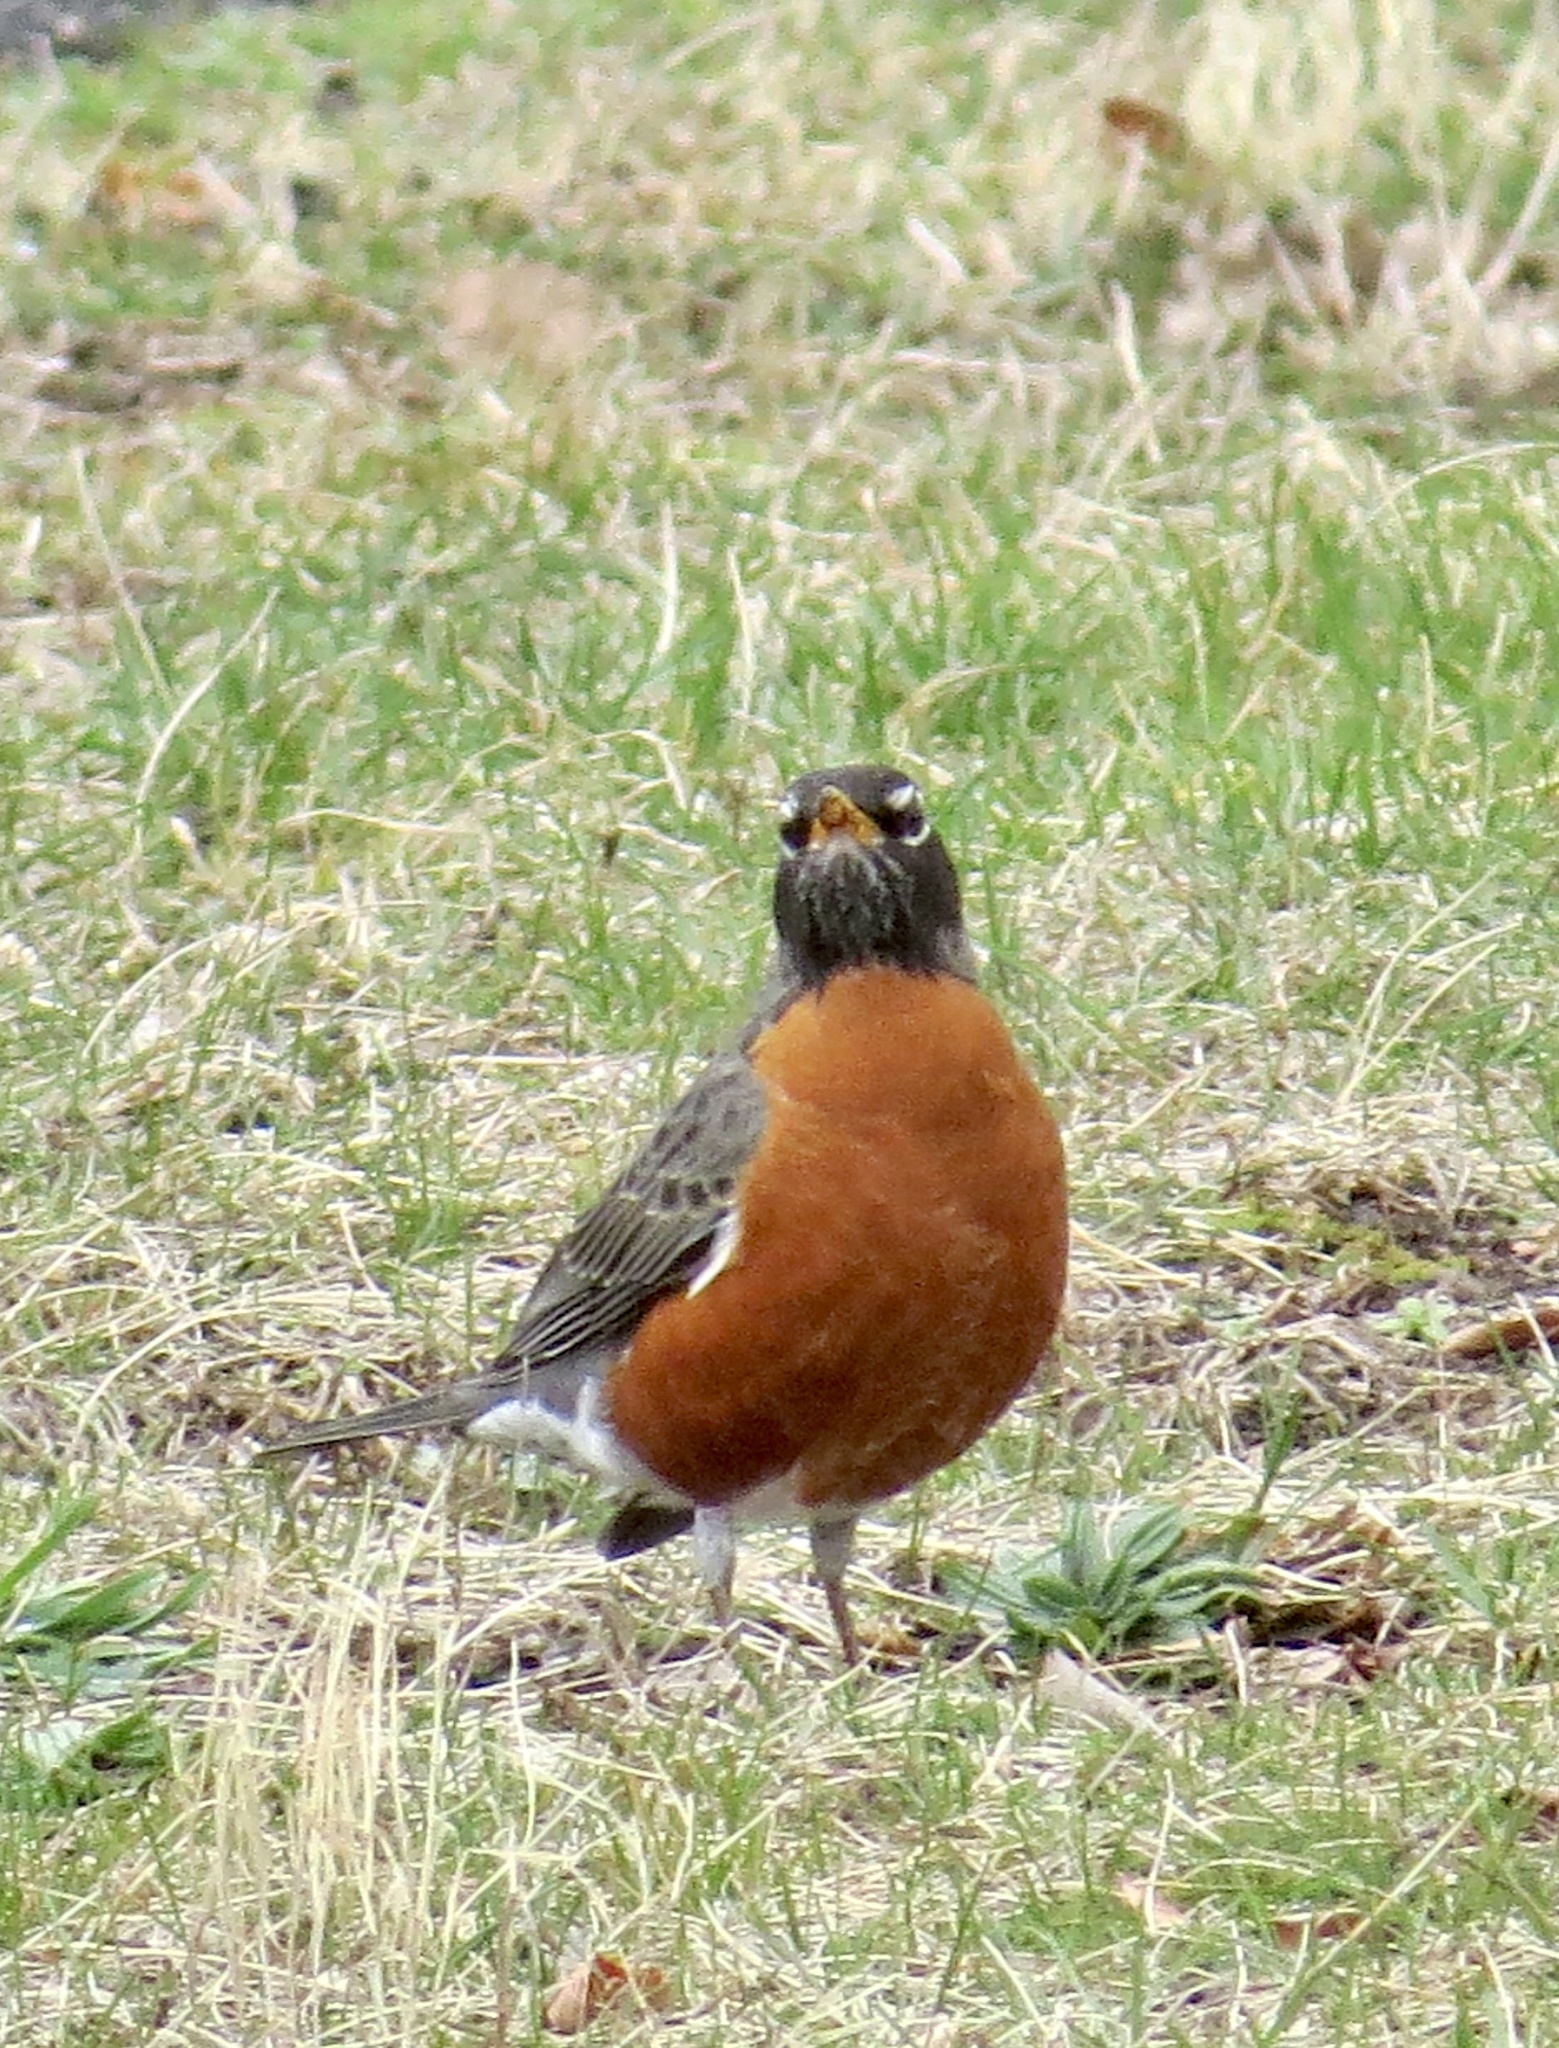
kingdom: Animalia
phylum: Chordata
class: Aves
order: Passeriformes
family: Turdidae
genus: Turdus
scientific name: Turdus migratorius
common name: American robin
